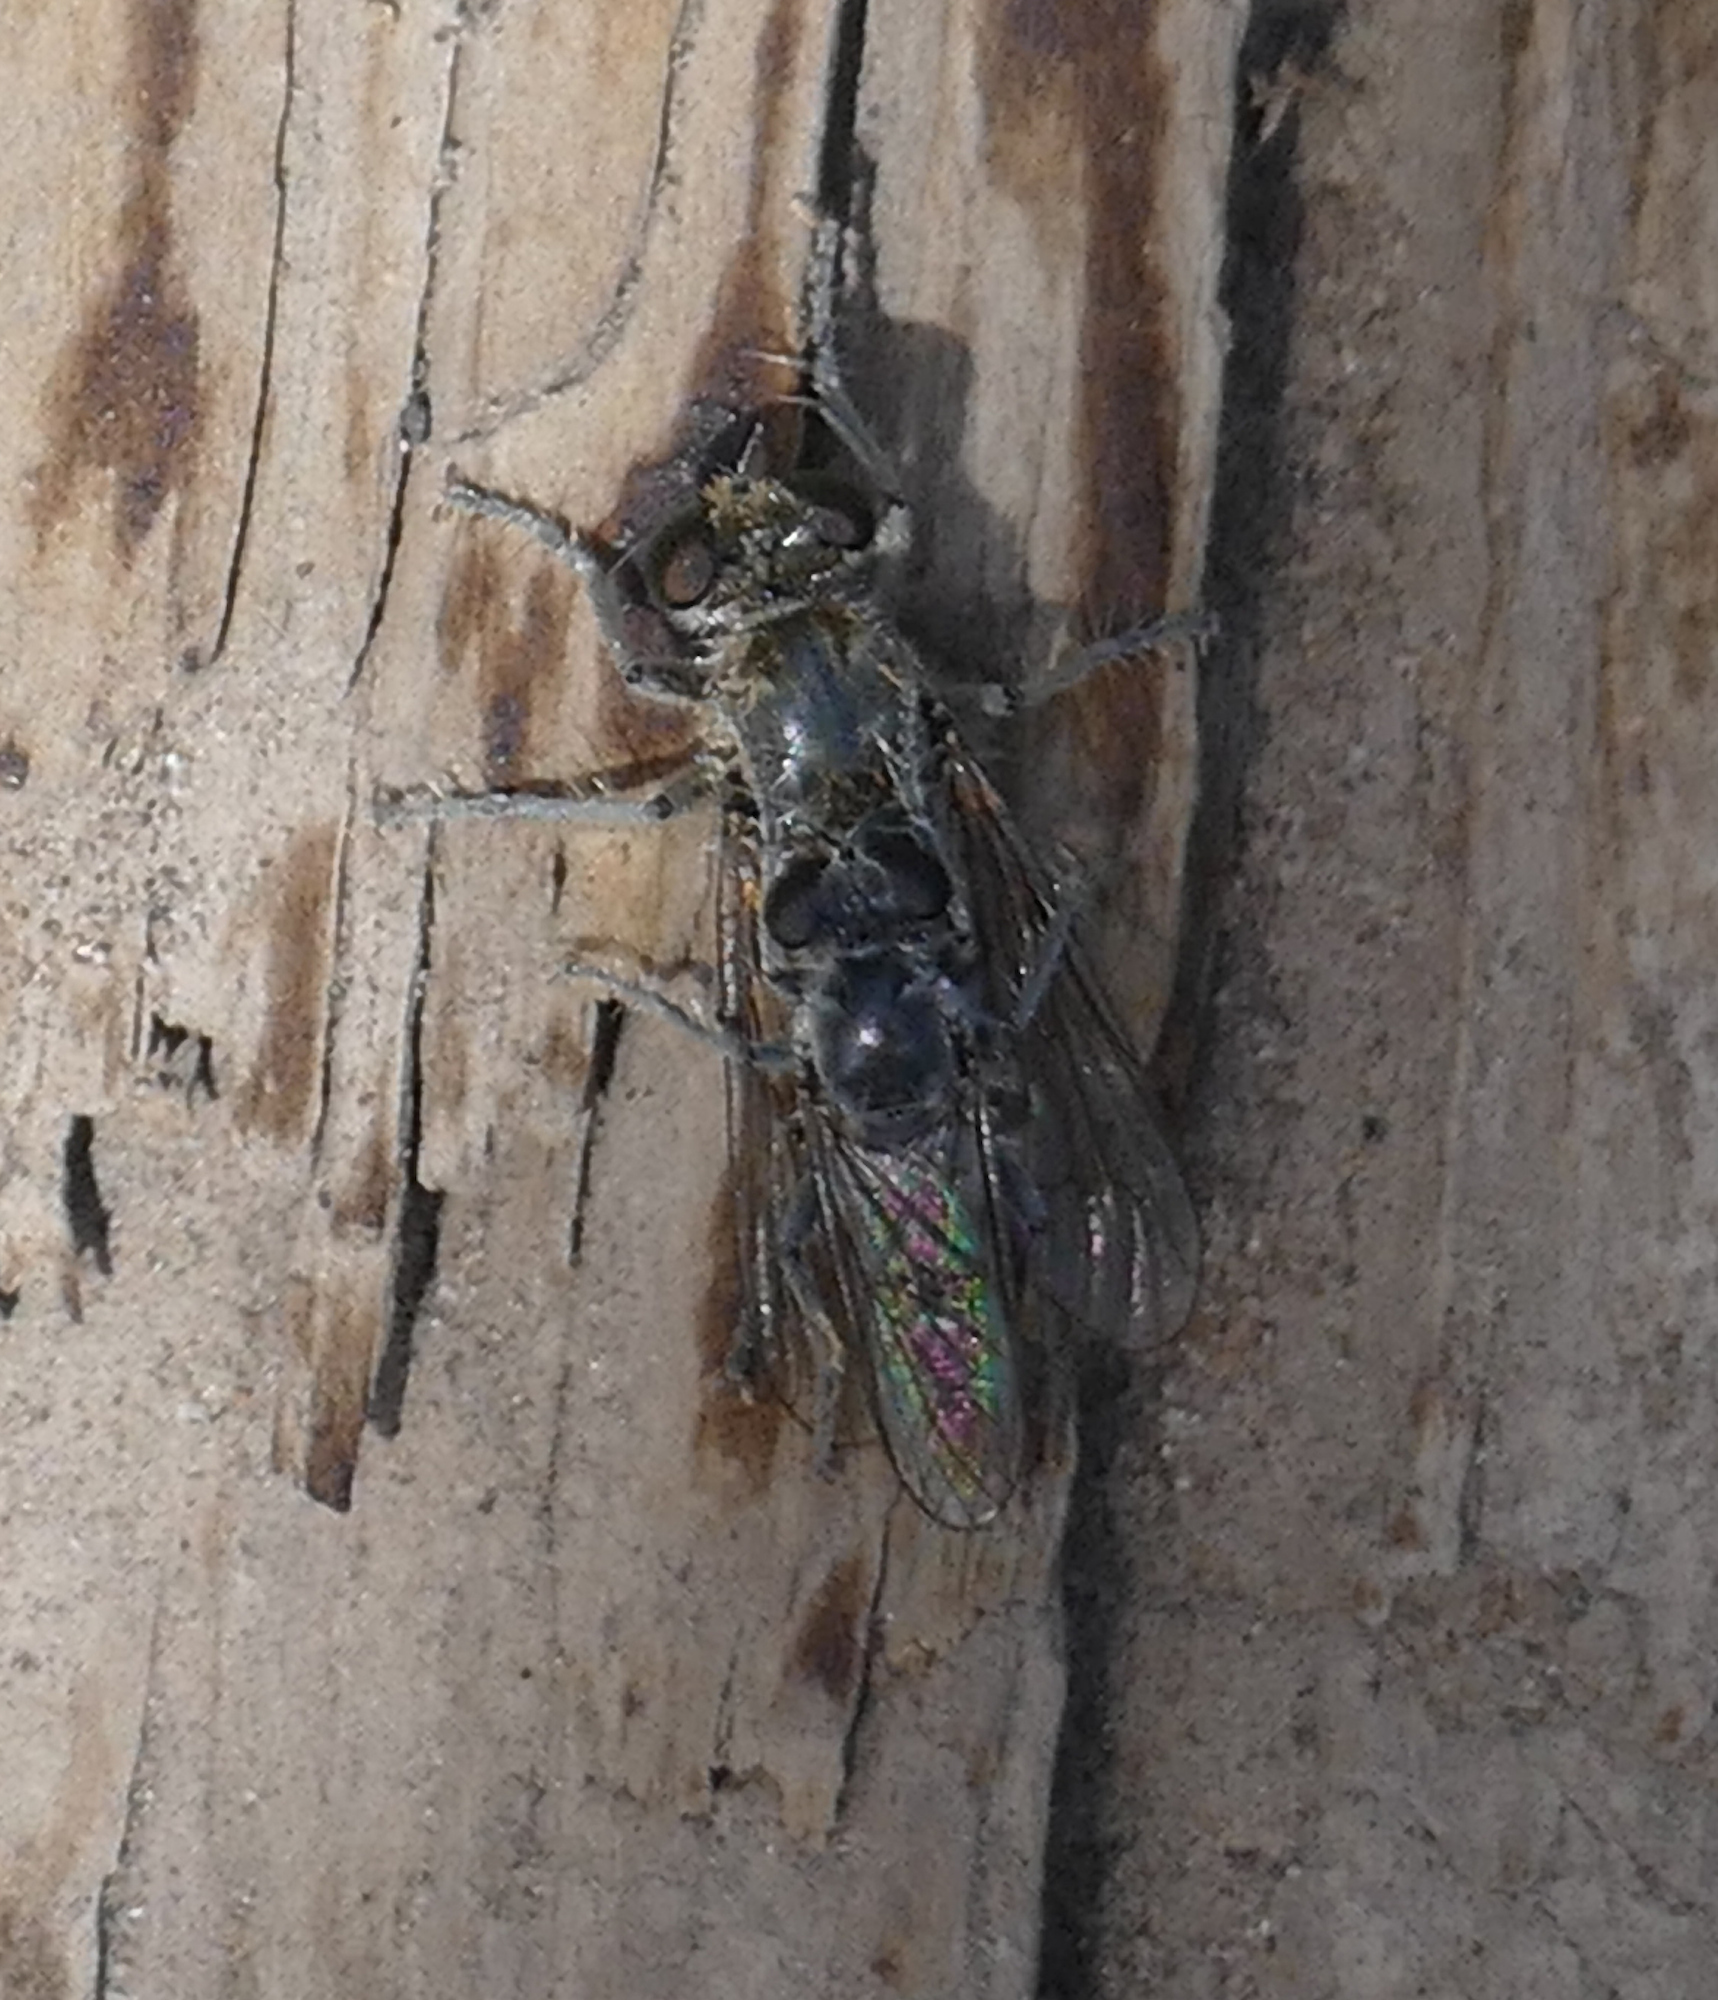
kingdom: Animalia
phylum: Arthropoda
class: Insecta
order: Diptera
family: Asilidae
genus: Stichopogon
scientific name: Stichopogon catulus
